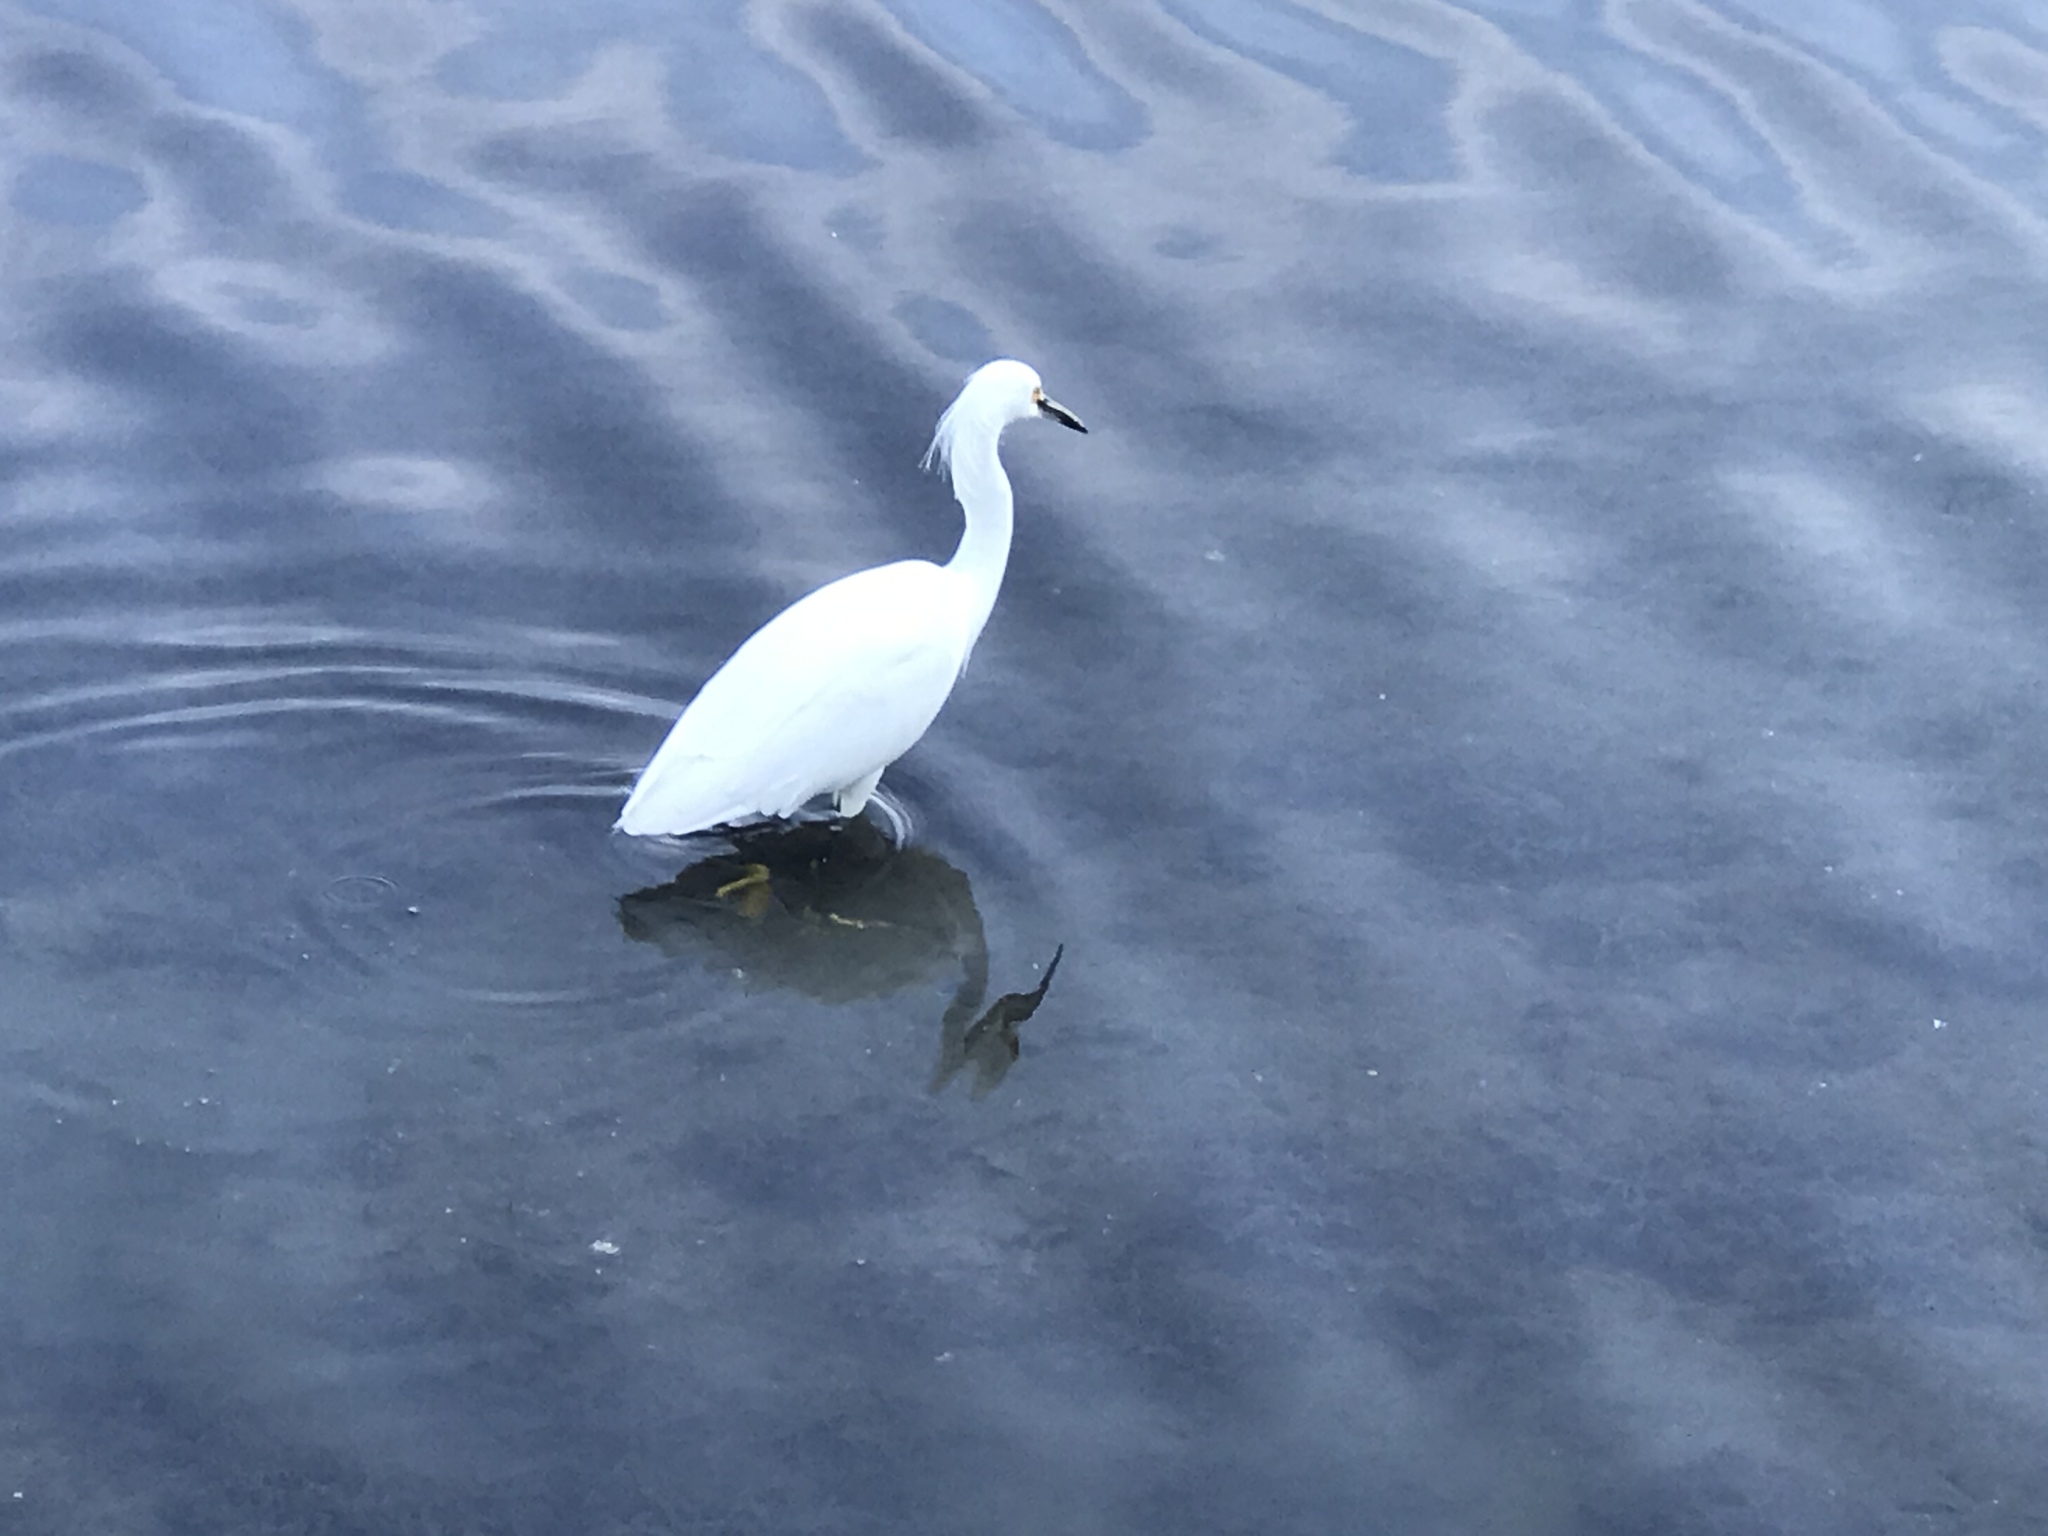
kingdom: Animalia
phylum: Chordata
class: Aves
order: Pelecaniformes
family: Ardeidae
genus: Egretta
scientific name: Egretta thula
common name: Snowy egret
